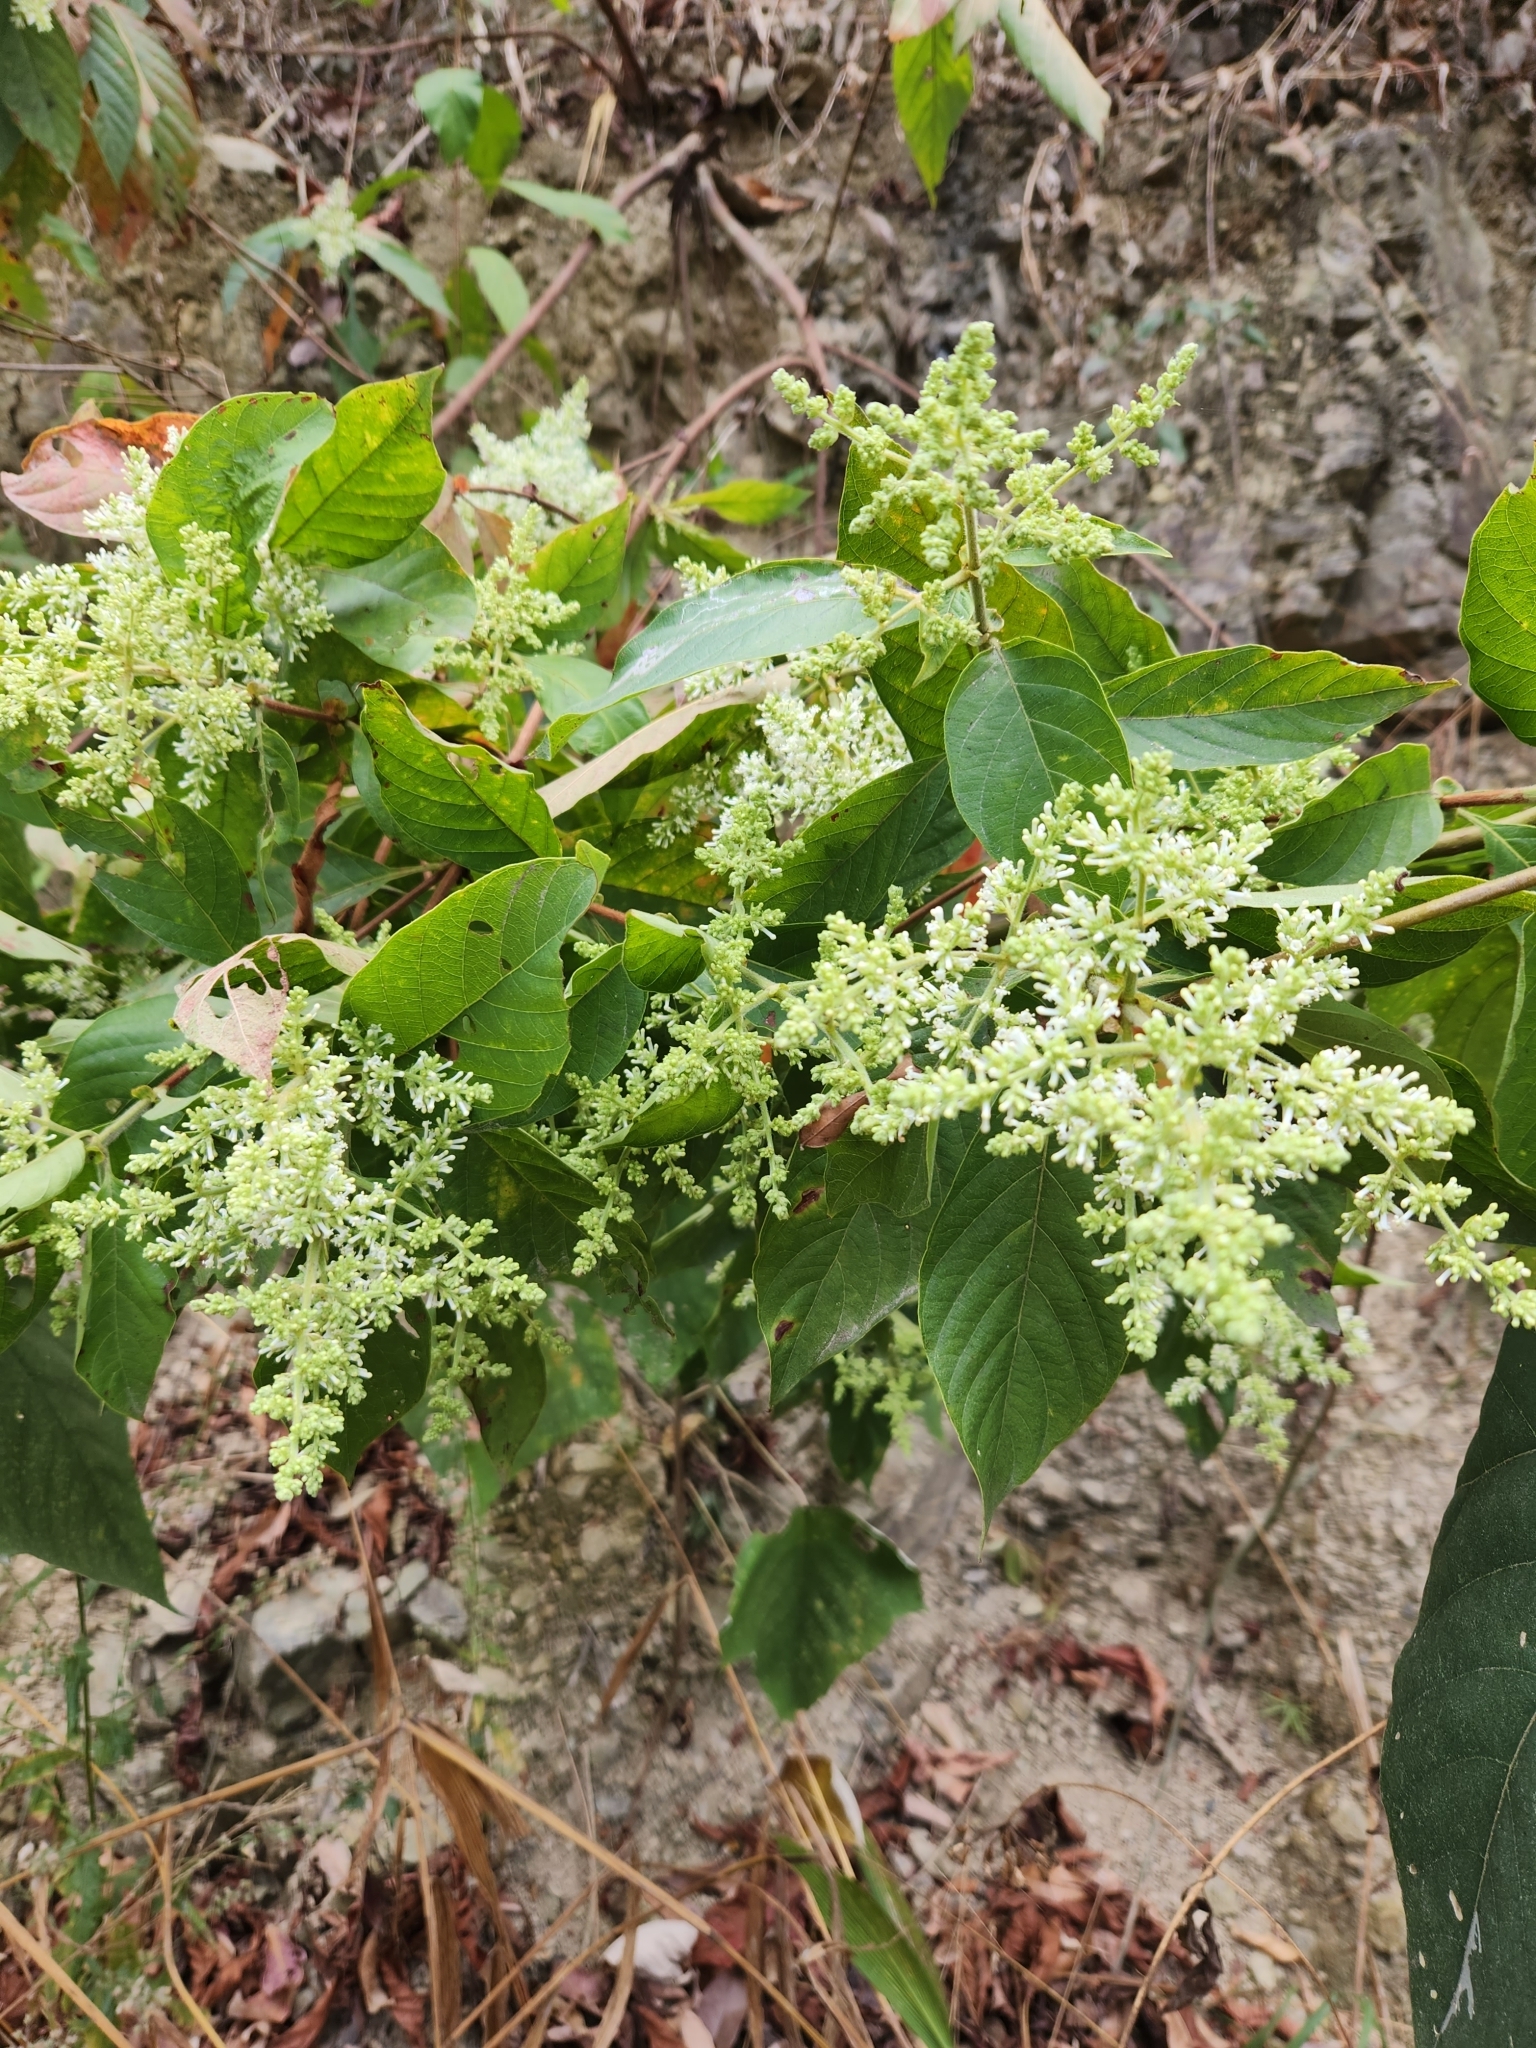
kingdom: Plantae
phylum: Tracheophyta
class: Magnoliopsida
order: Gentianales
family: Rubiaceae
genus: Wendlandia
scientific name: Wendlandia uvariifolia
